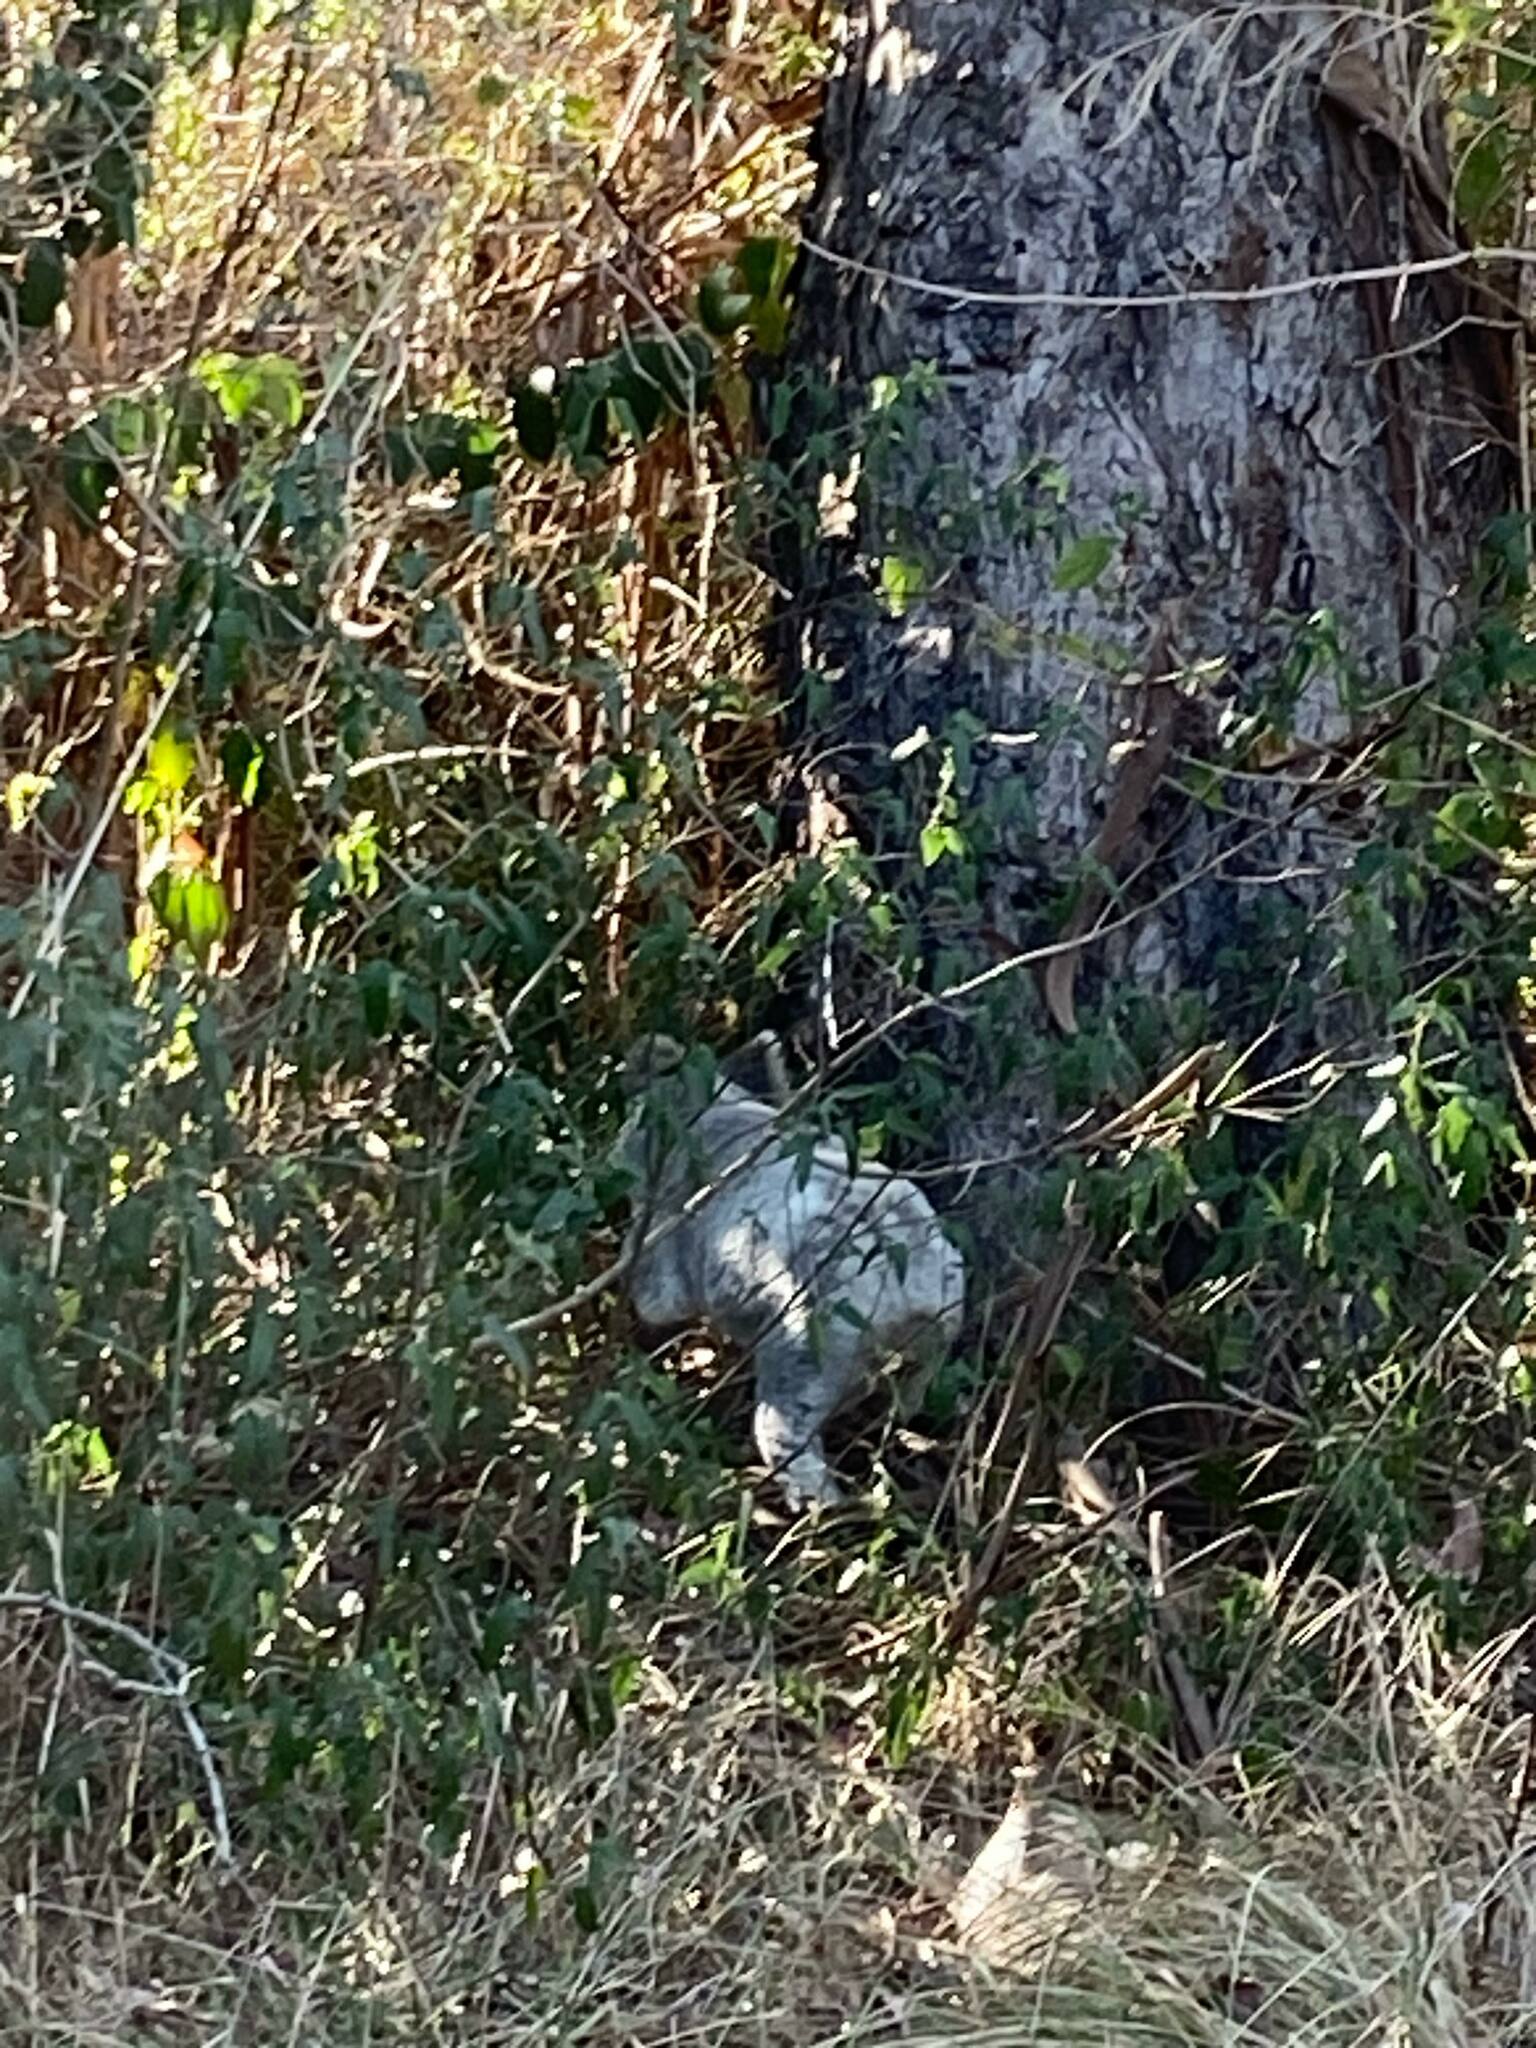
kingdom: Animalia
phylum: Chordata
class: Mammalia
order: Diprotodontia
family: Phascolarctidae
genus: Phascolarctos
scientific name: Phascolarctos cinereus
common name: Koala
